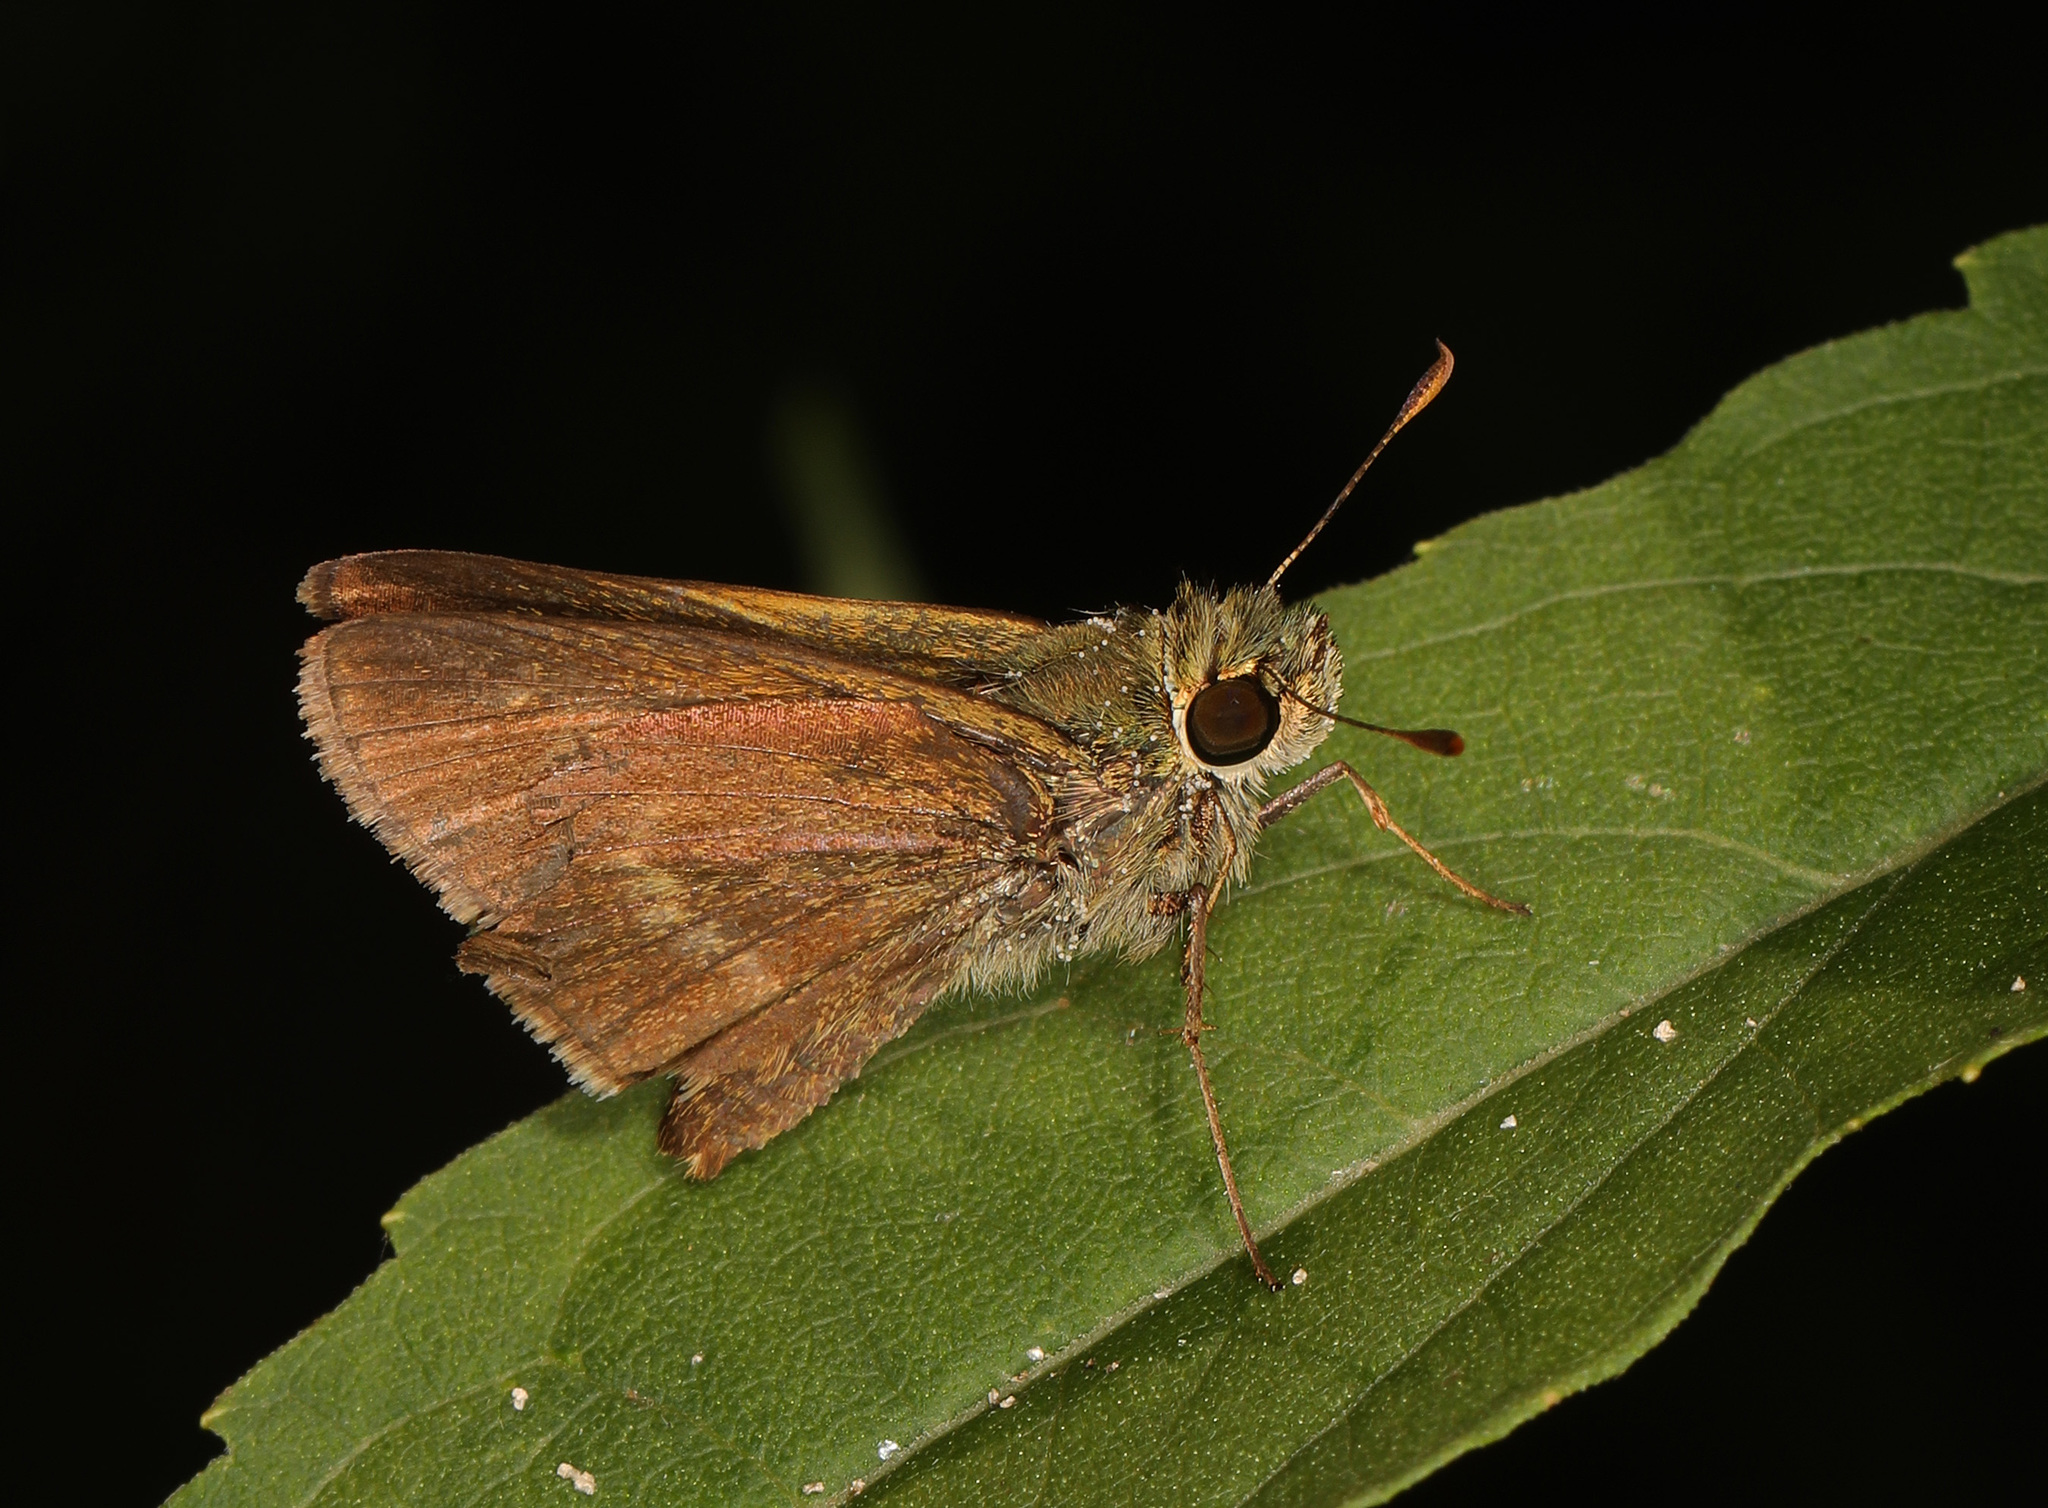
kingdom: Animalia
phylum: Arthropoda
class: Insecta
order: Lepidoptera
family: Hesperiidae
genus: Polites
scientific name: Polites egeremet
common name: Northern broken-dash
